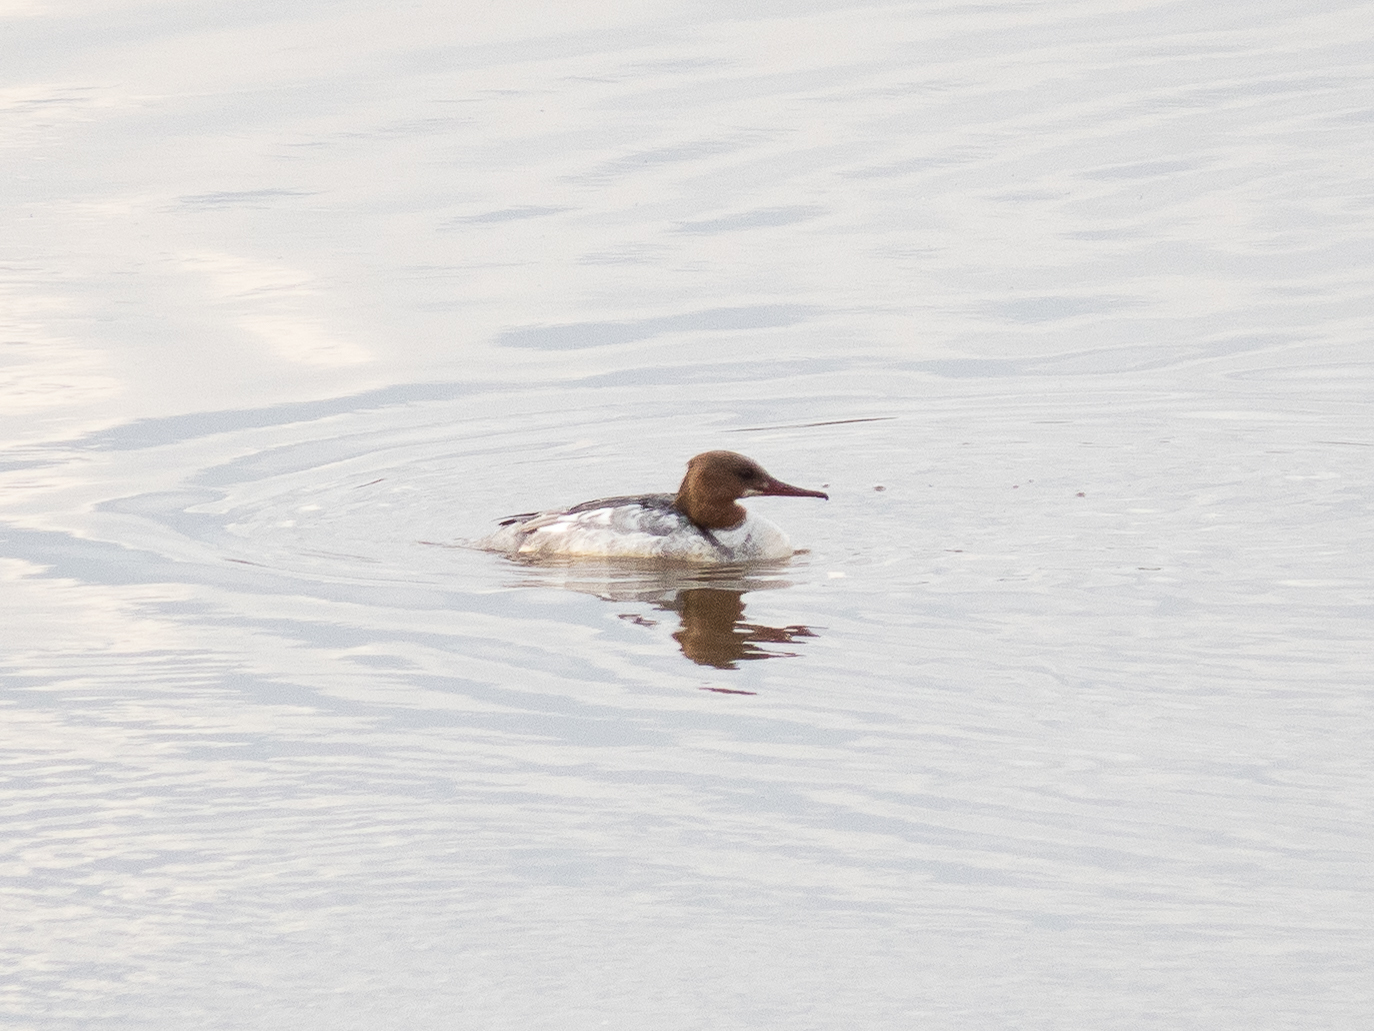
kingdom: Animalia
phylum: Chordata
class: Aves
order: Anseriformes
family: Anatidae
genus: Mergus
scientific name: Mergus merganser
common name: Common merganser
